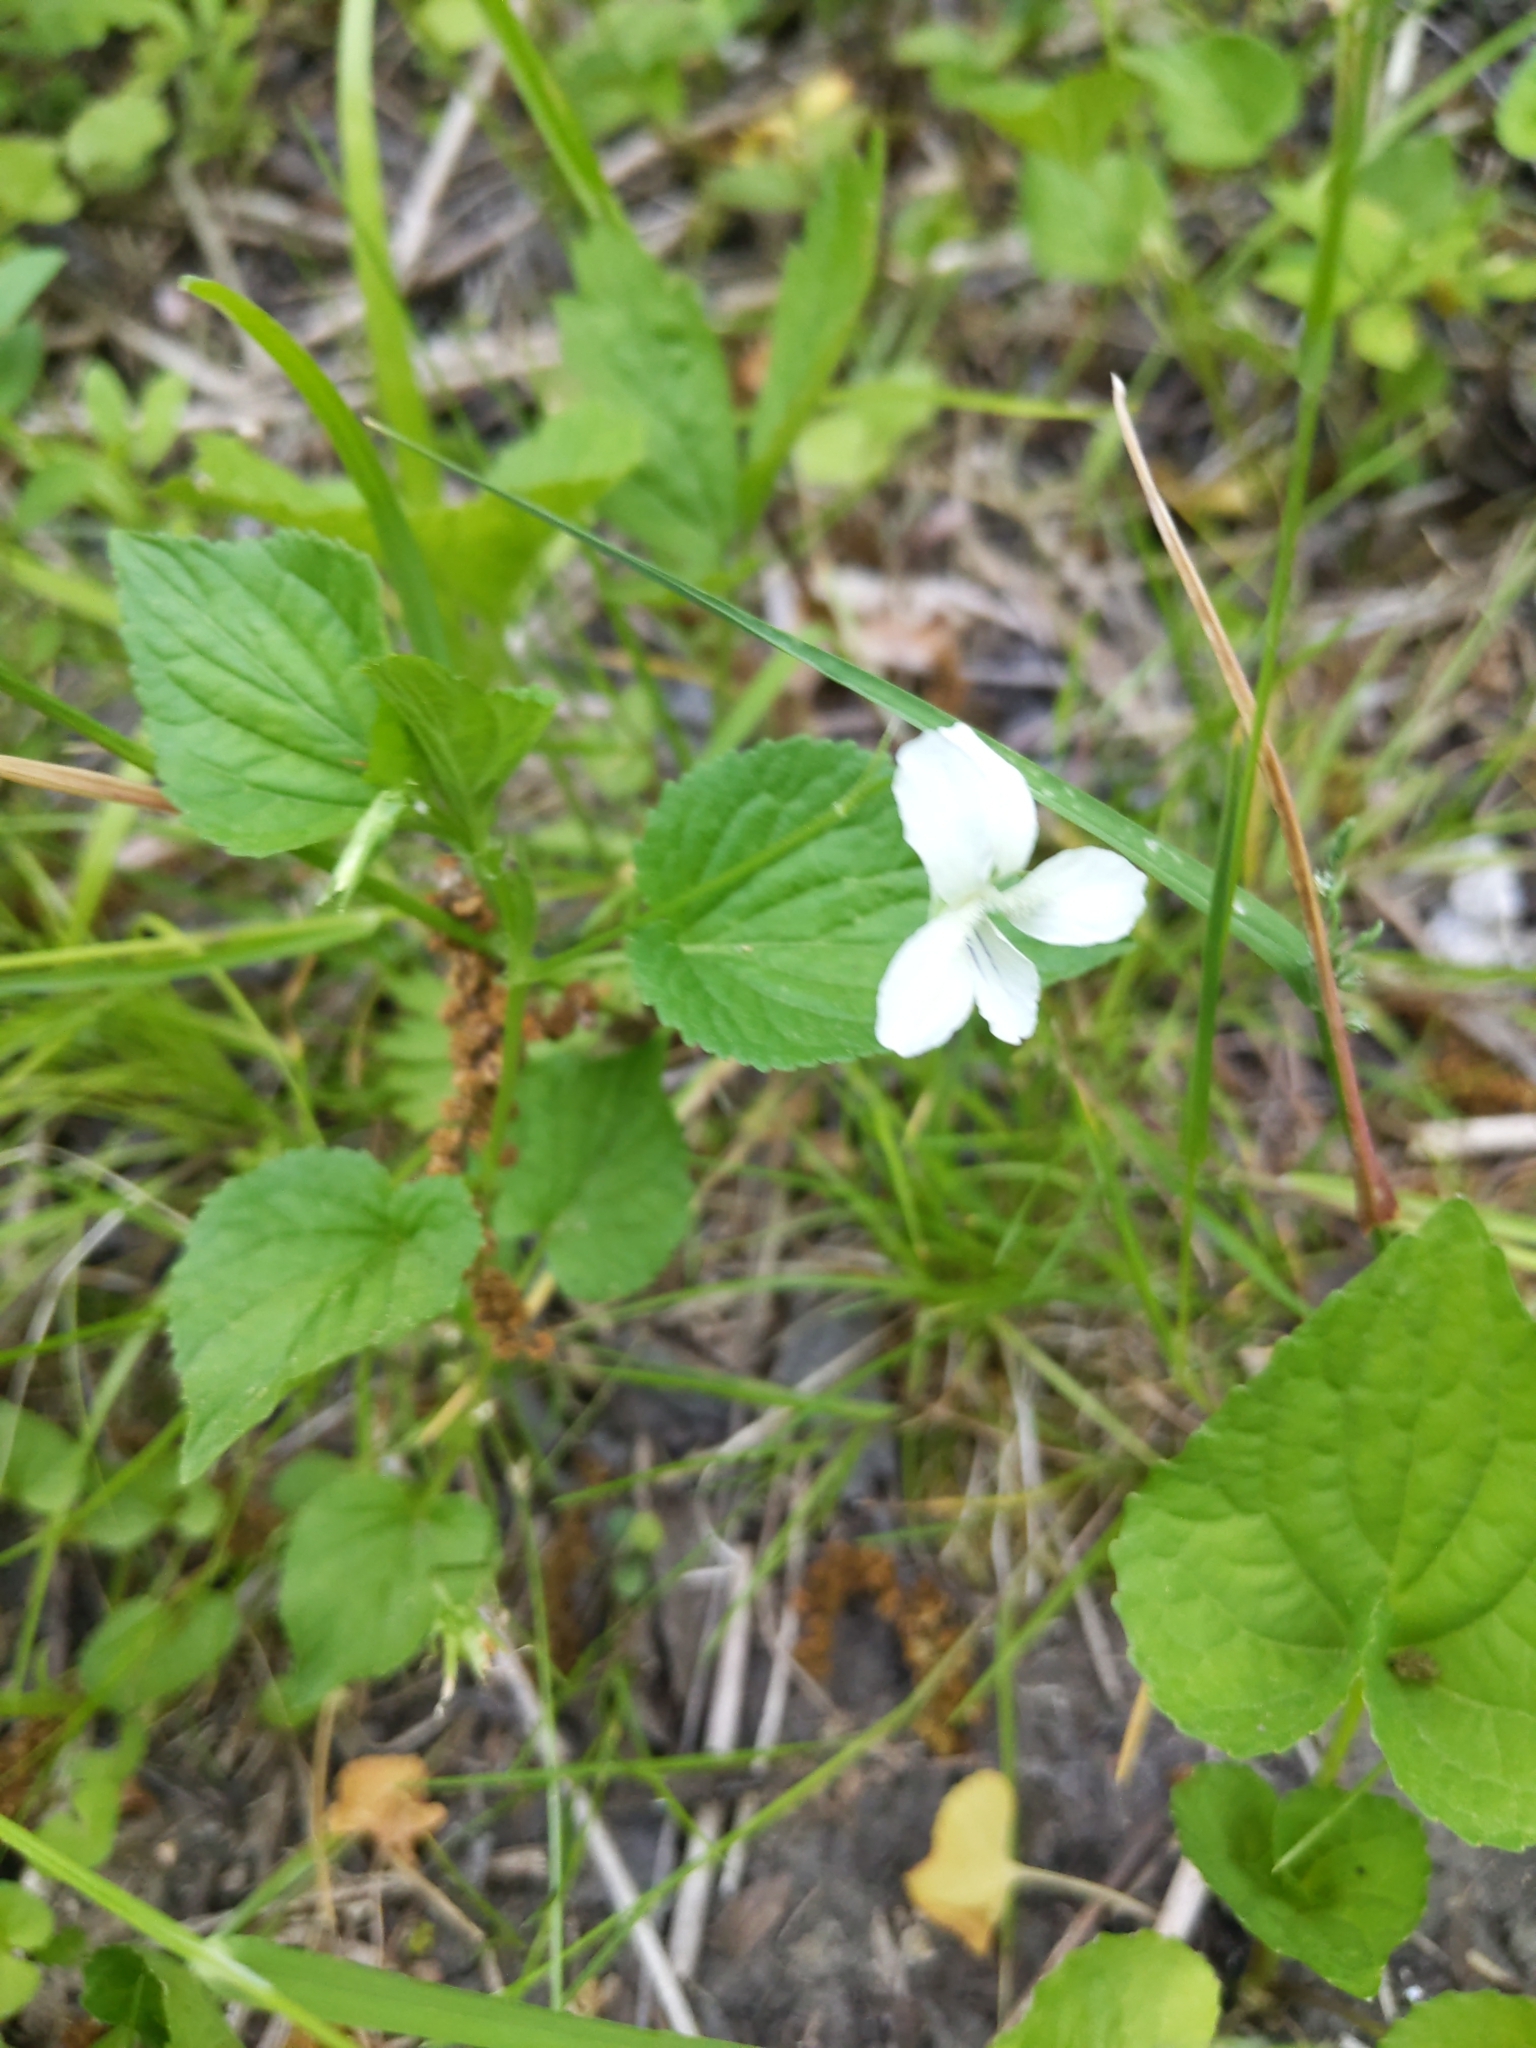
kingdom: Plantae
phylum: Tracheophyta
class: Magnoliopsida
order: Malpighiales
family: Violaceae
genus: Viola
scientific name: Viola striata
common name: Cream violet
